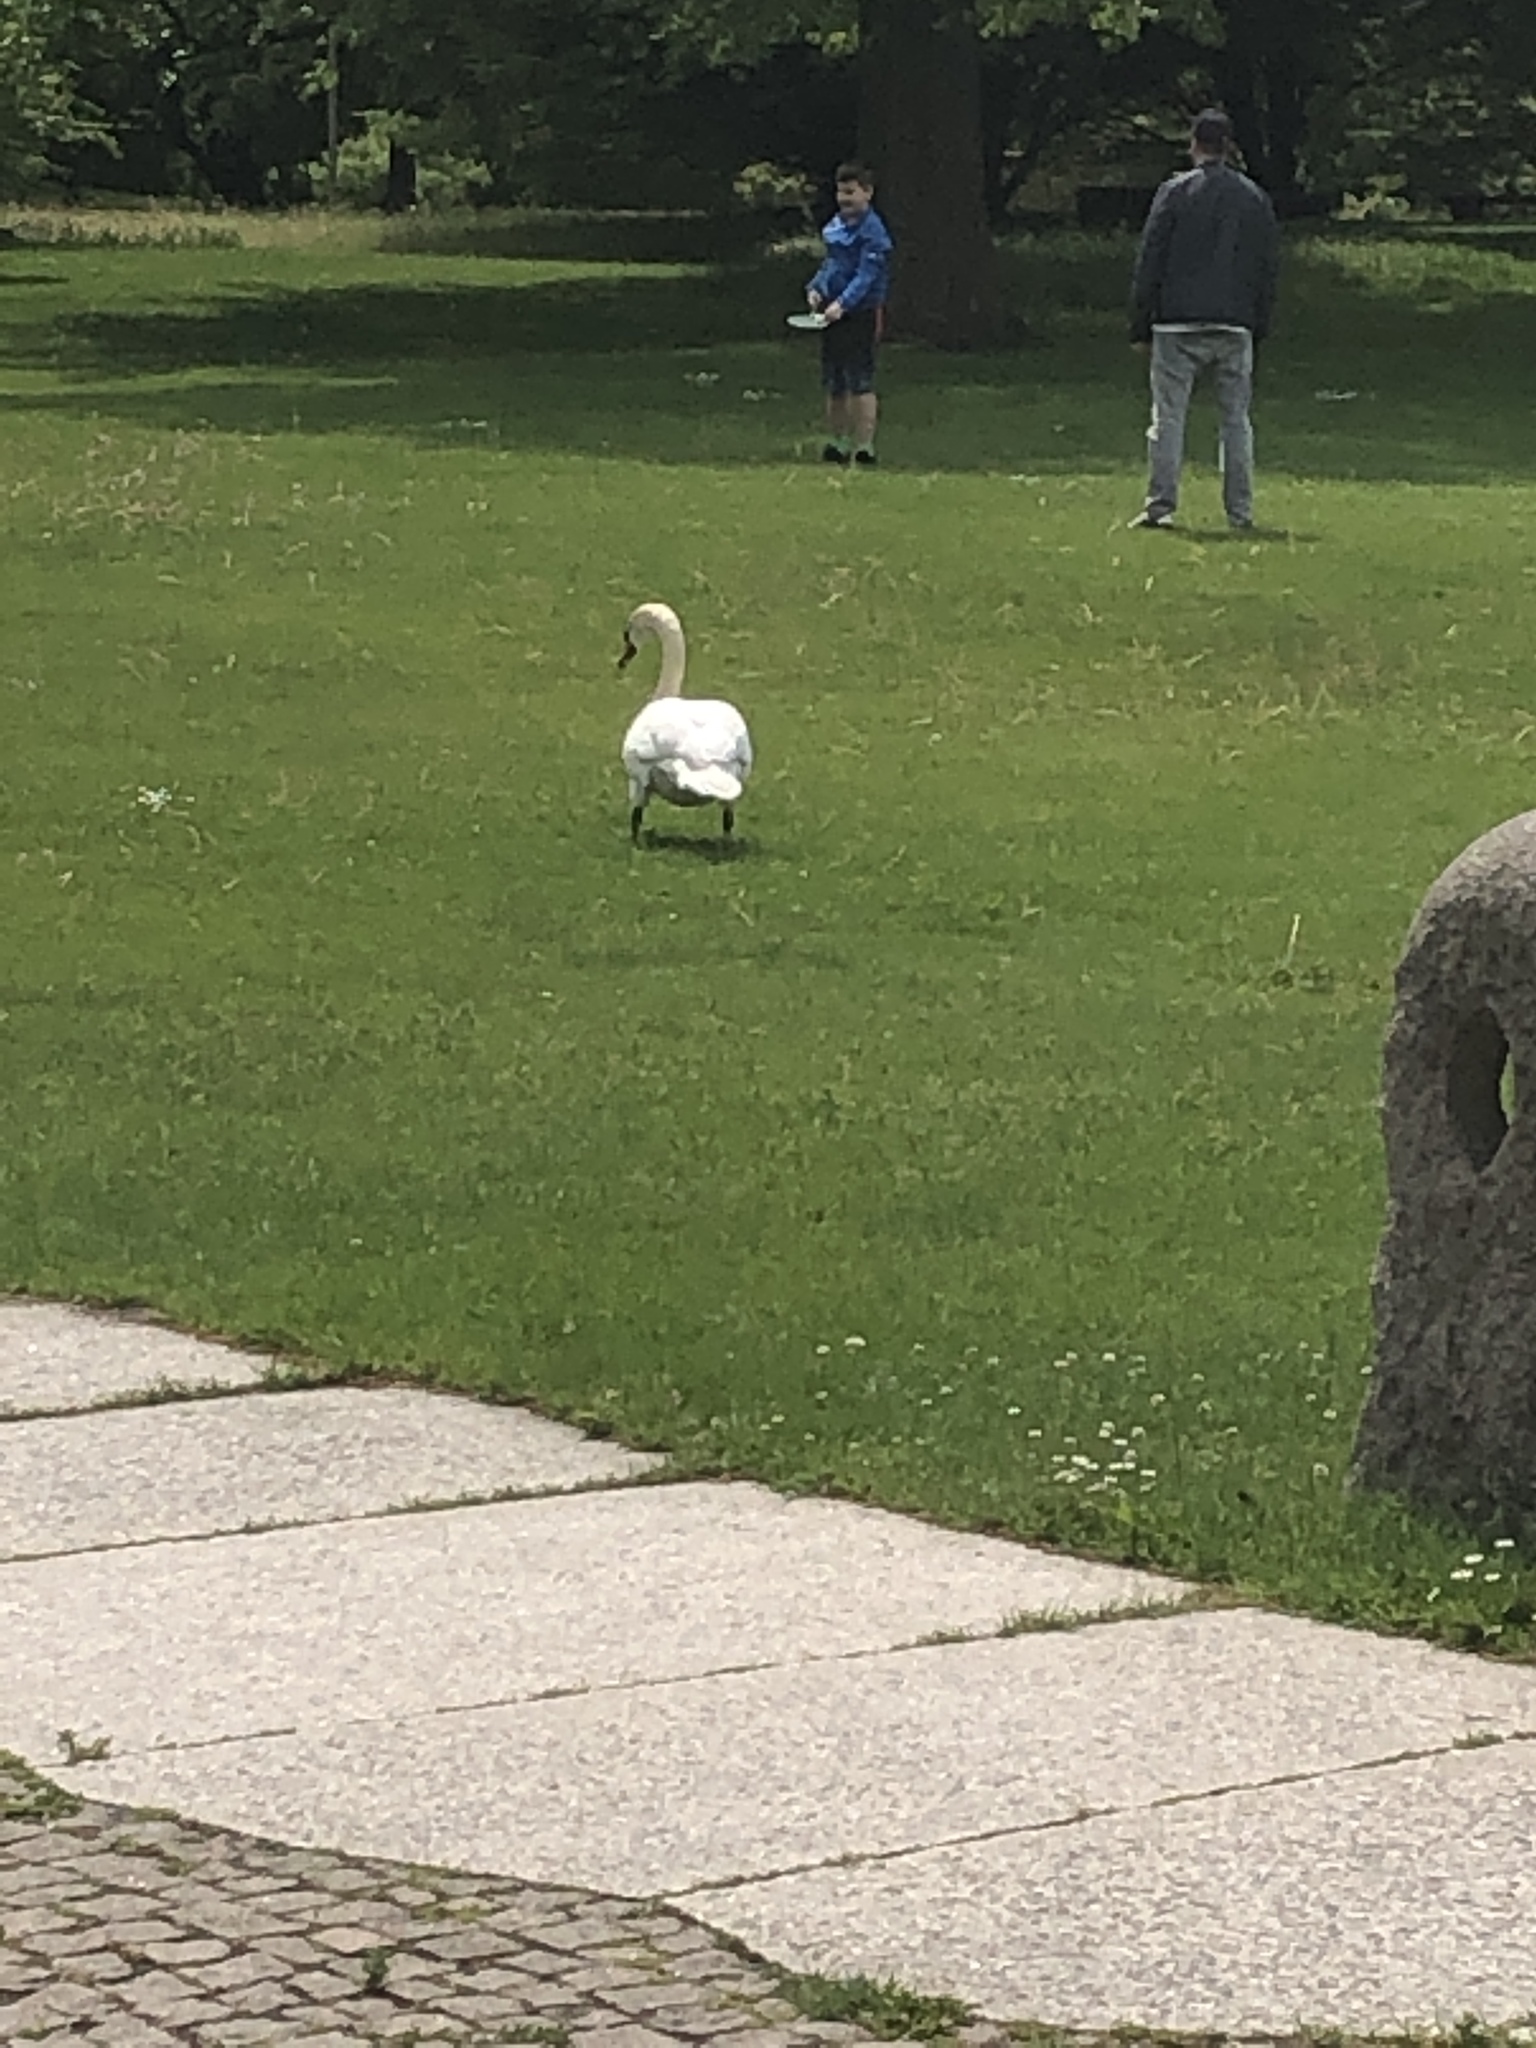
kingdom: Animalia
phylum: Chordata
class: Aves
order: Anseriformes
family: Anatidae
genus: Cygnus
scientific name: Cygnus olor
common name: Mute swan
